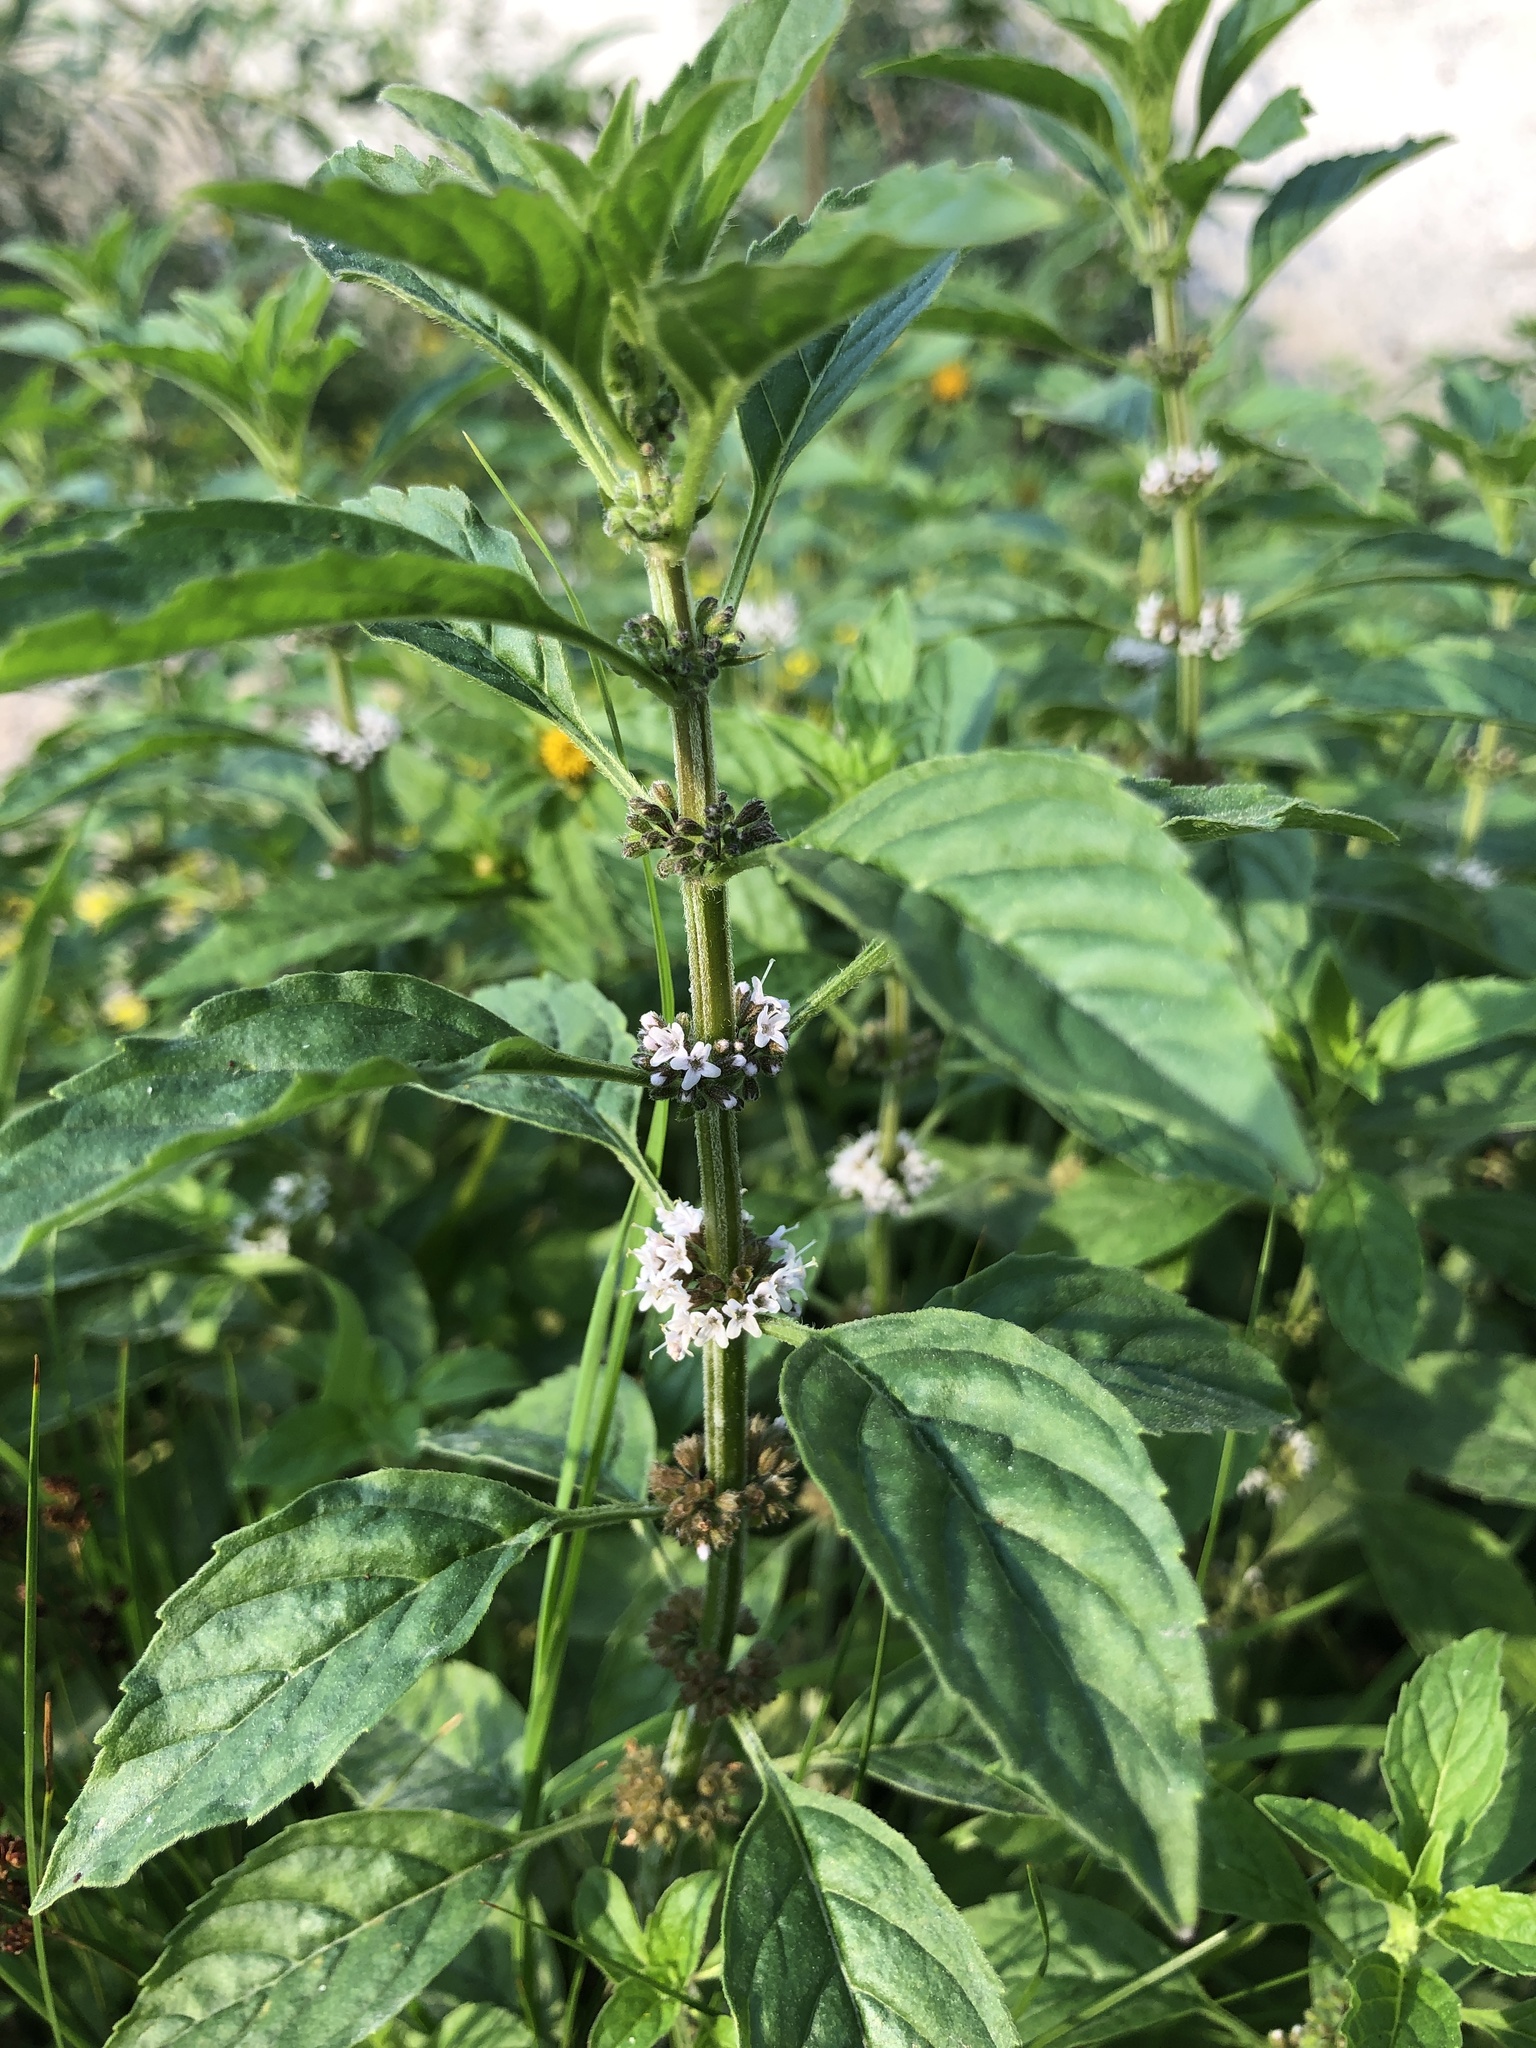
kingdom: Plantae
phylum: Tracheophyta
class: Magnoliopsida
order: Lamiales
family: Lamiaceae
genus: Mentha
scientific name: Mentha arvensis
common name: Corn mint
